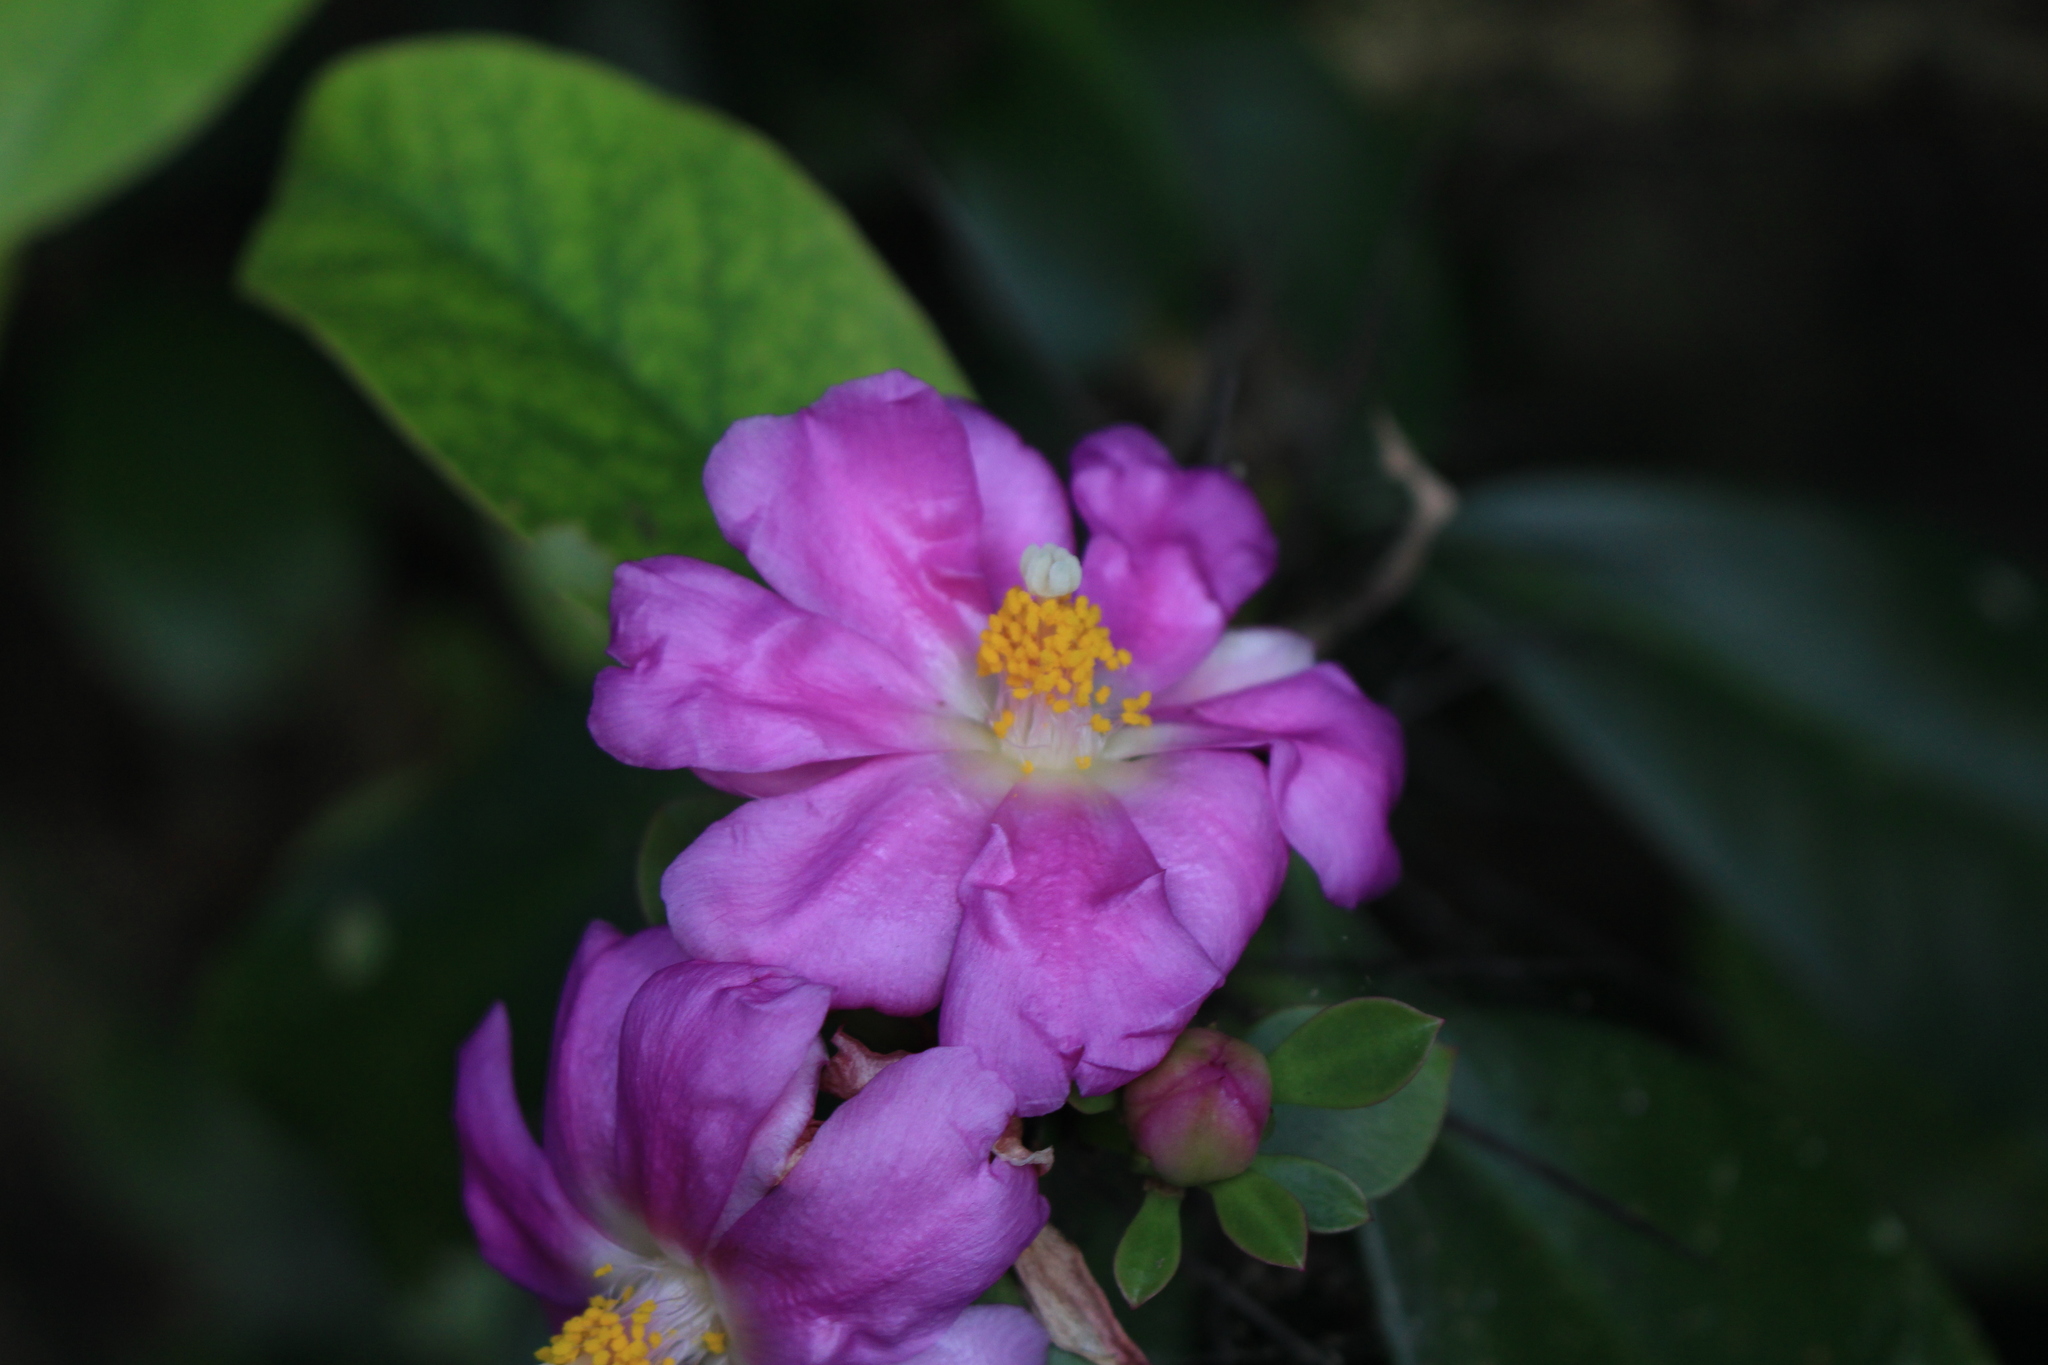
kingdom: Plantae
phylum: Tracheophyta
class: Magnoliopsida
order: Caryophyllales
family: Cactaceae
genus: Pereskia
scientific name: Pereskia grandifolia
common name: Rose cactus
